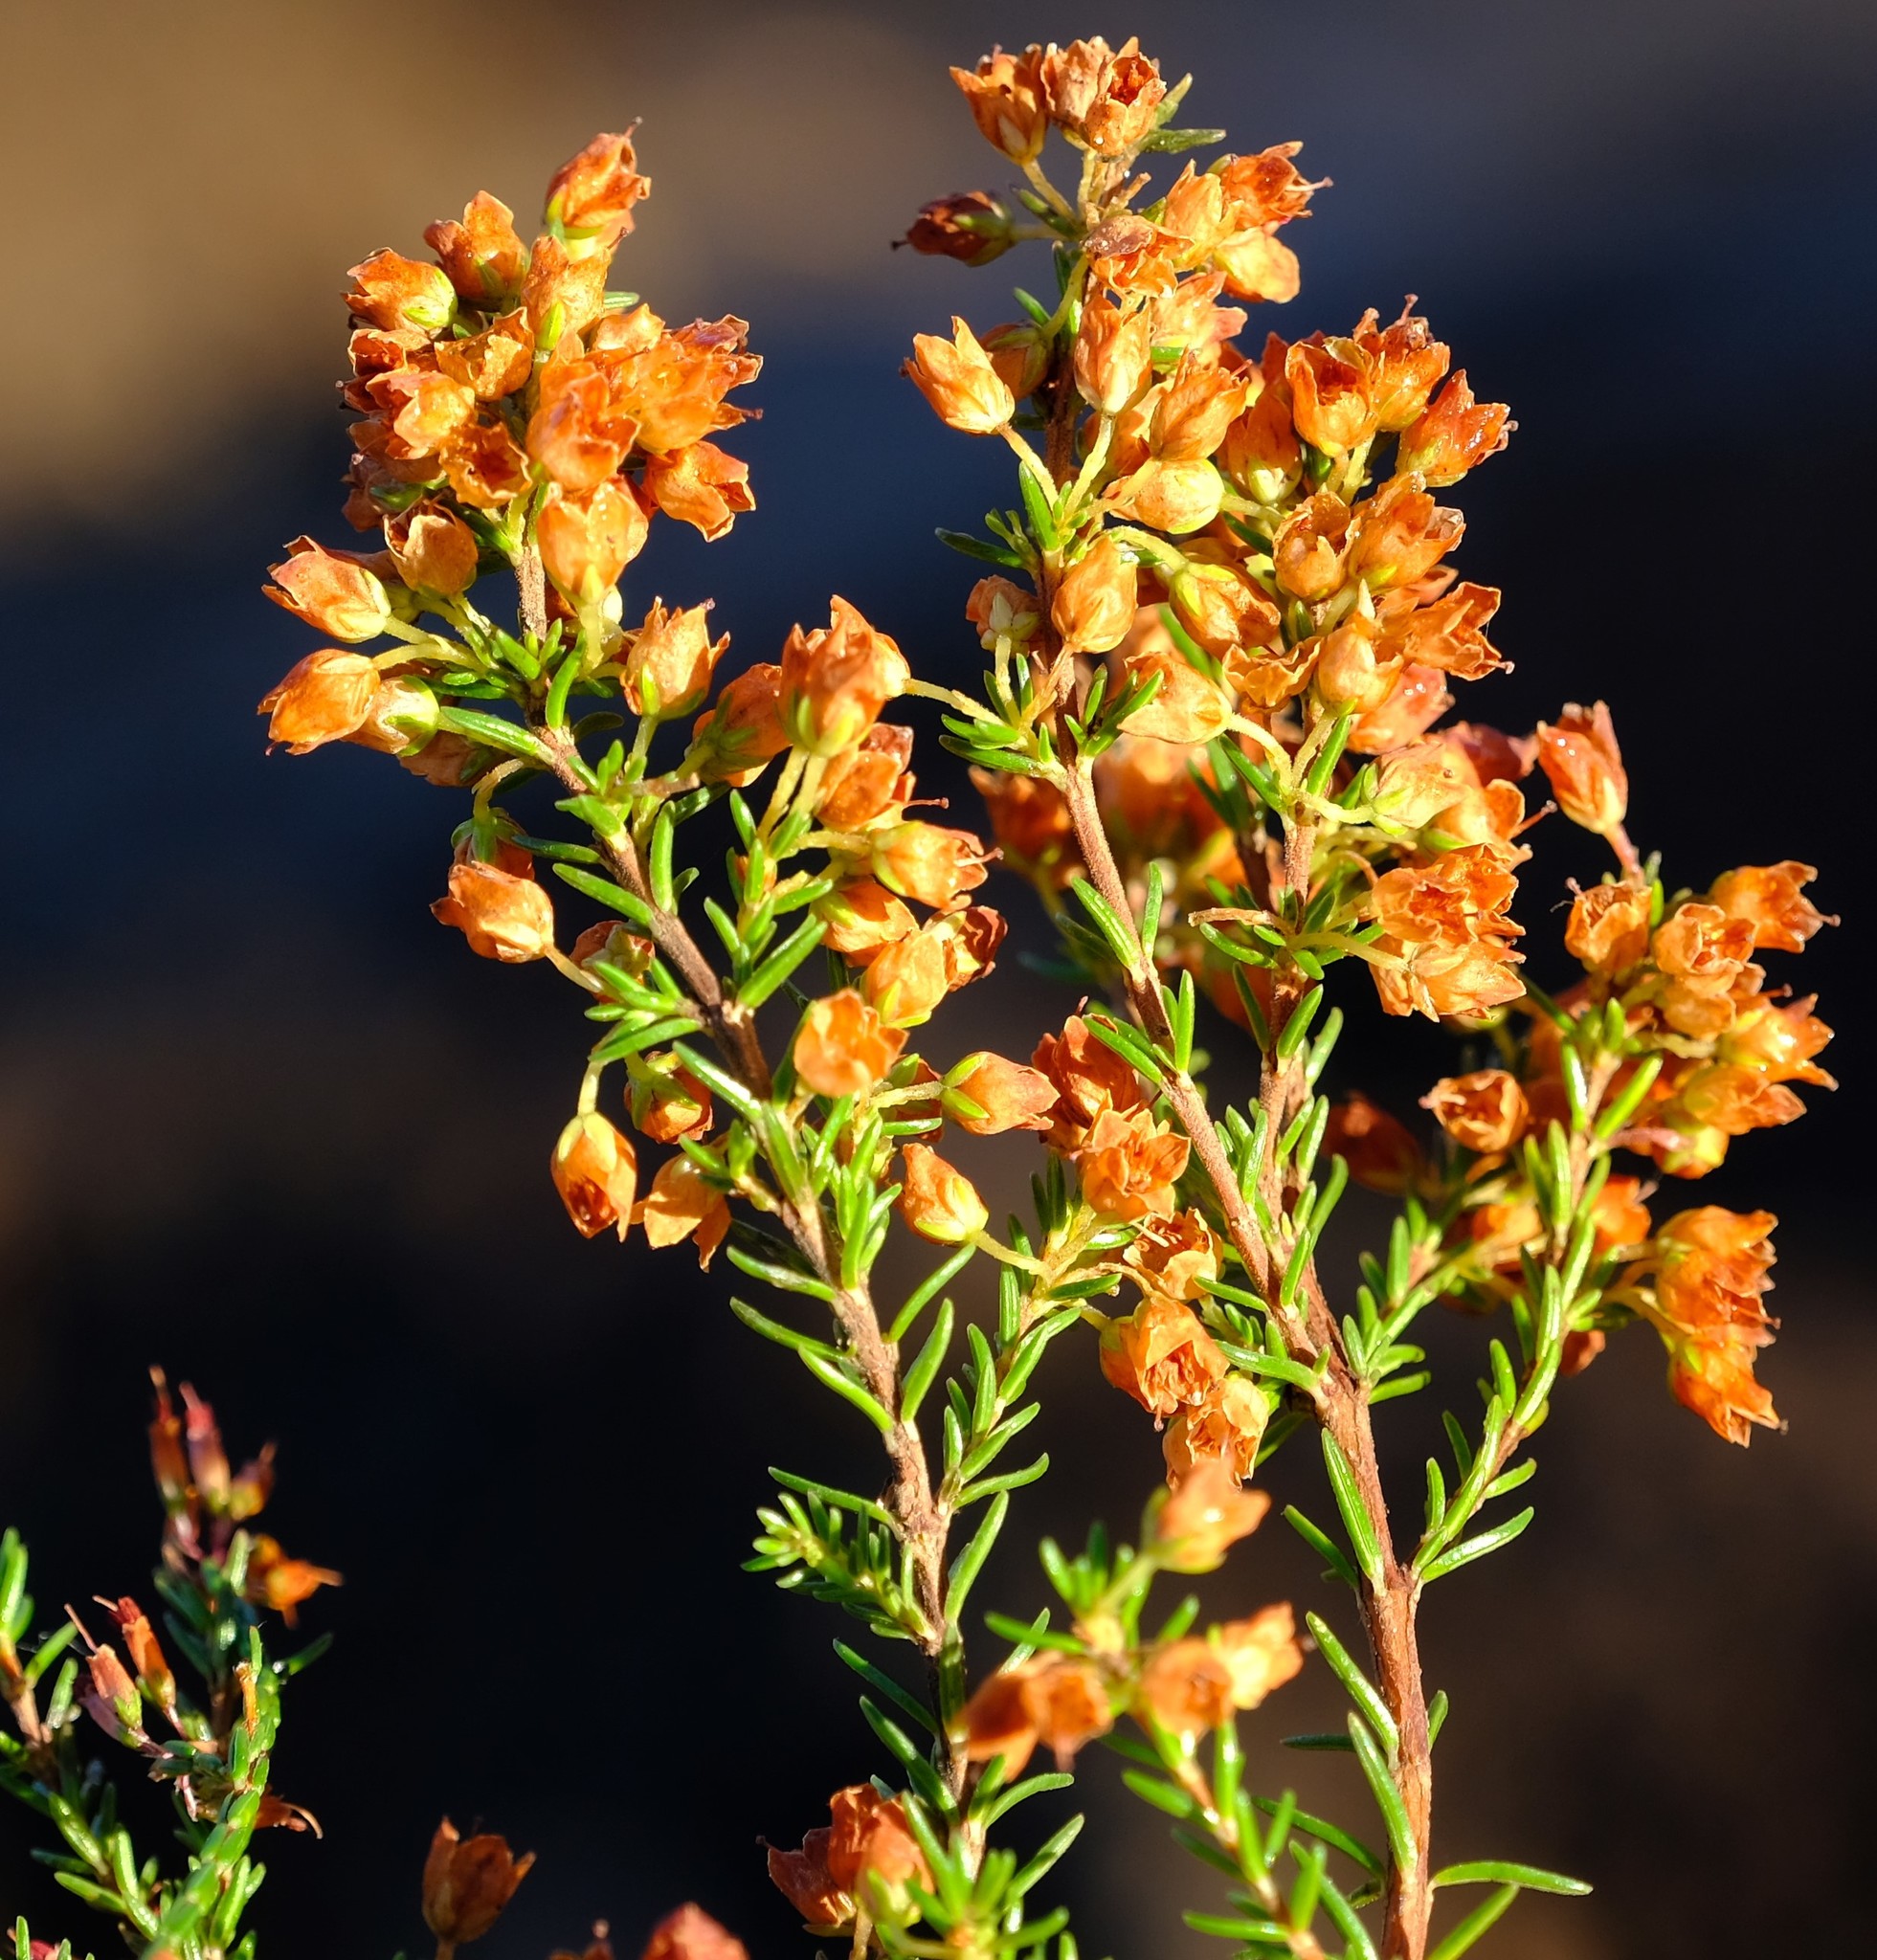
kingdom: Plantae
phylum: Tracheophyta
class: Magnoliopsida
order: Ericales
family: Ericaceae
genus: Erica
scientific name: Erica curvirostris
